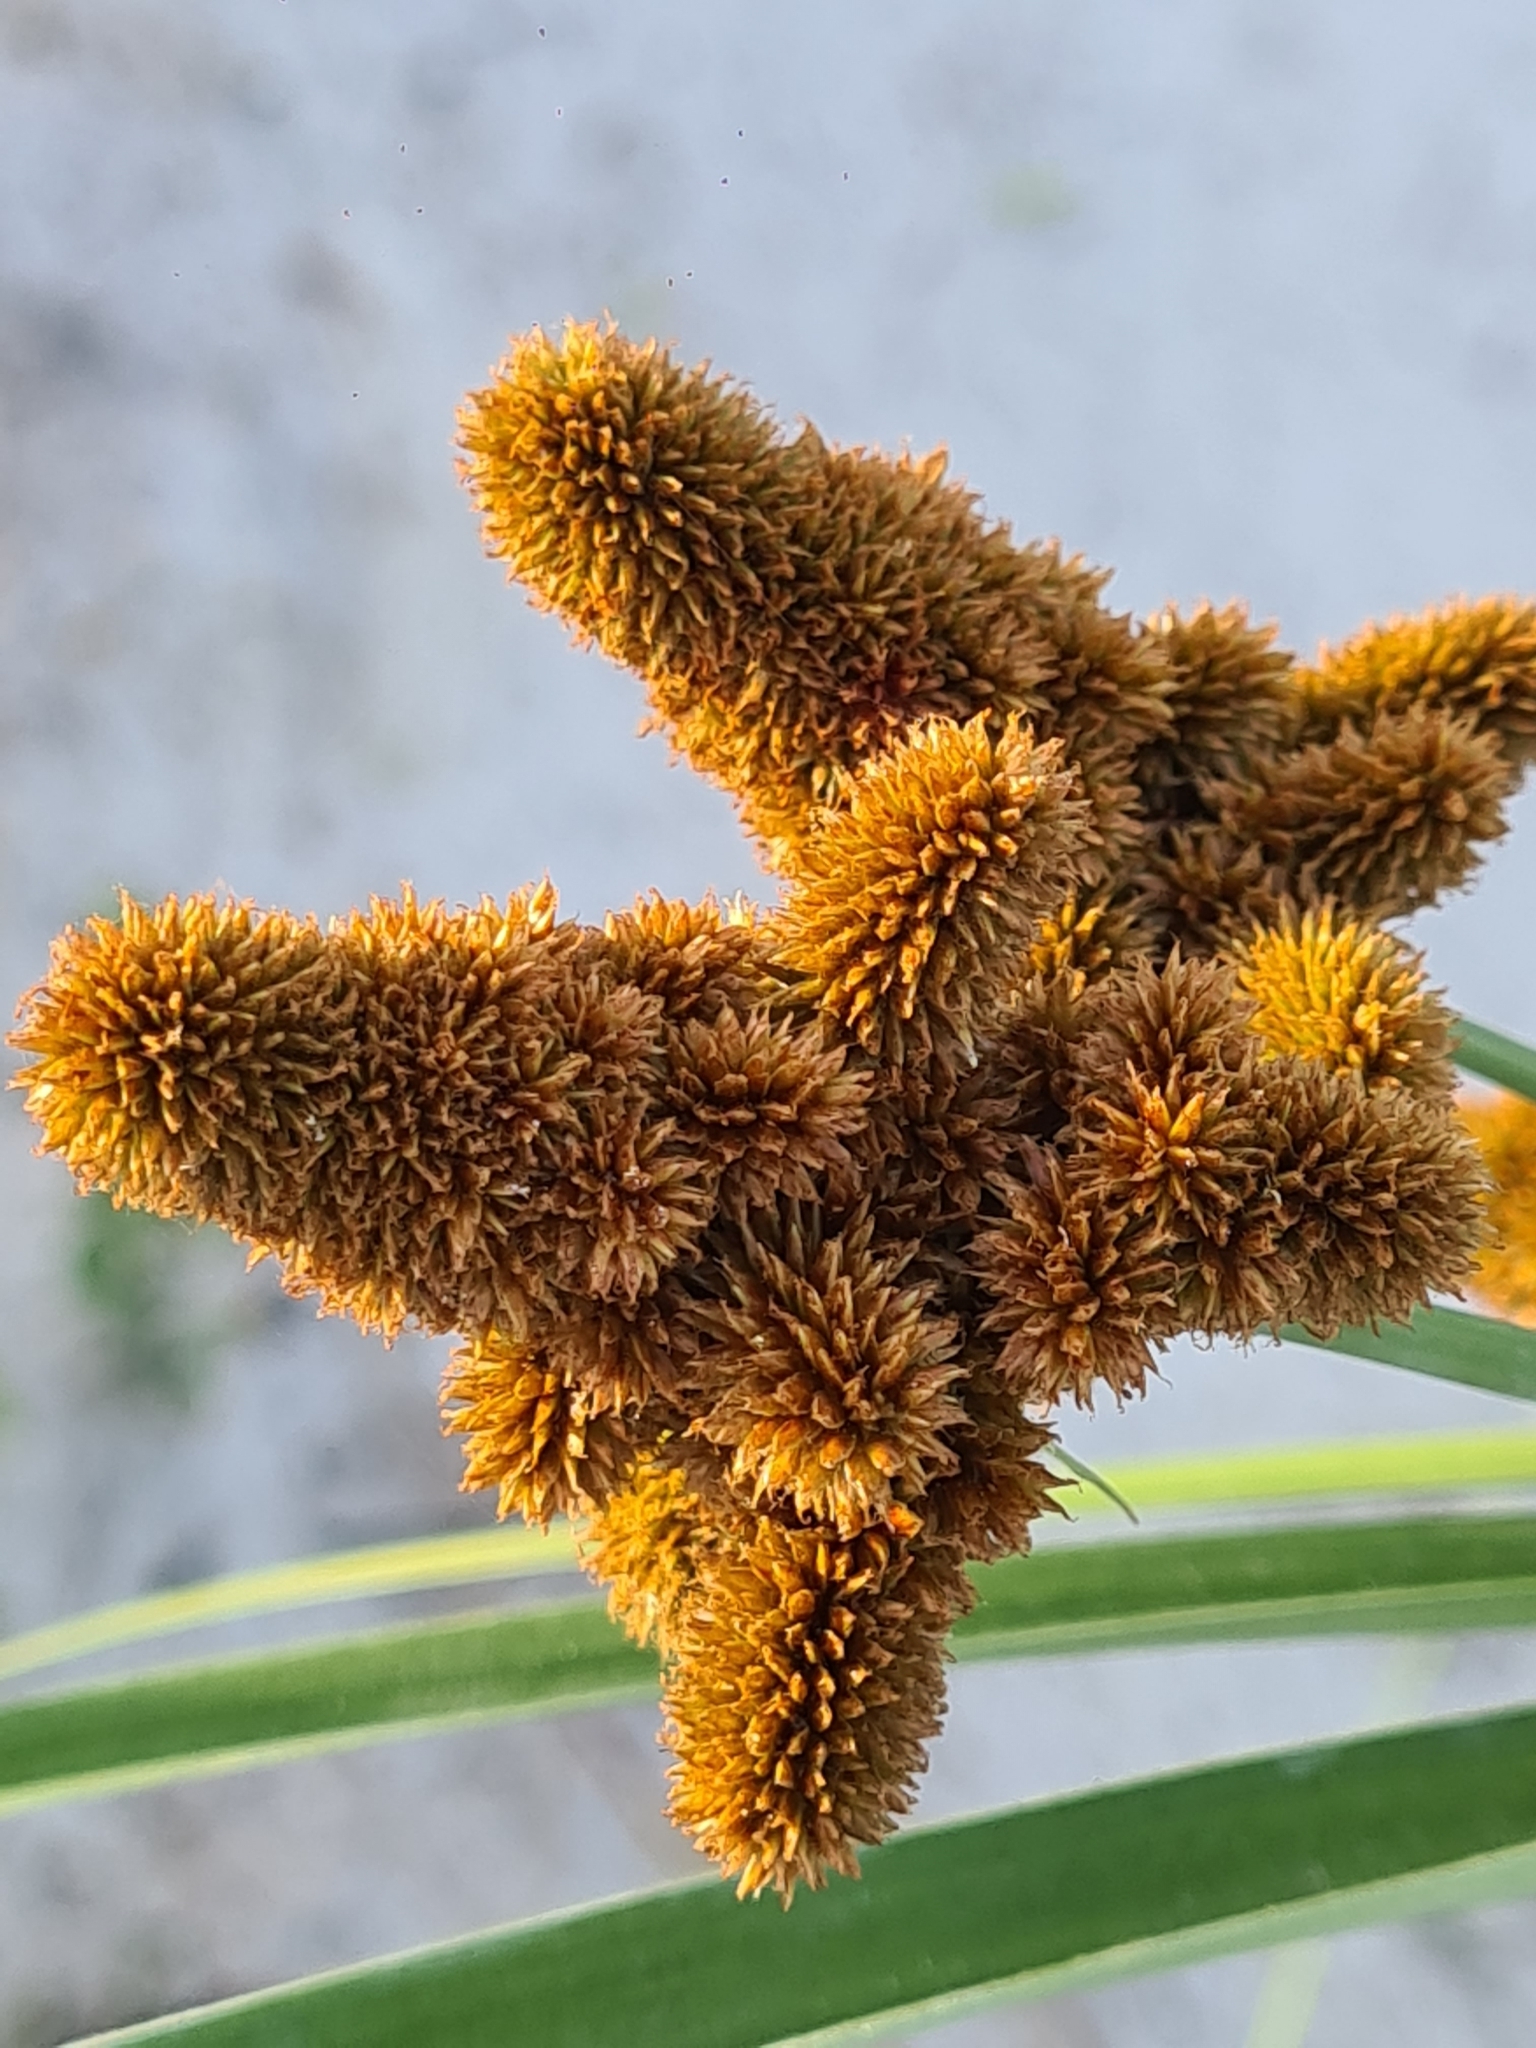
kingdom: Plantae
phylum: Tracheophyta
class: Liliopsida
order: Poales
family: Cyperaceae
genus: Cyperus
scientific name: Cyperus ligularis
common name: Swamp flat sedge
